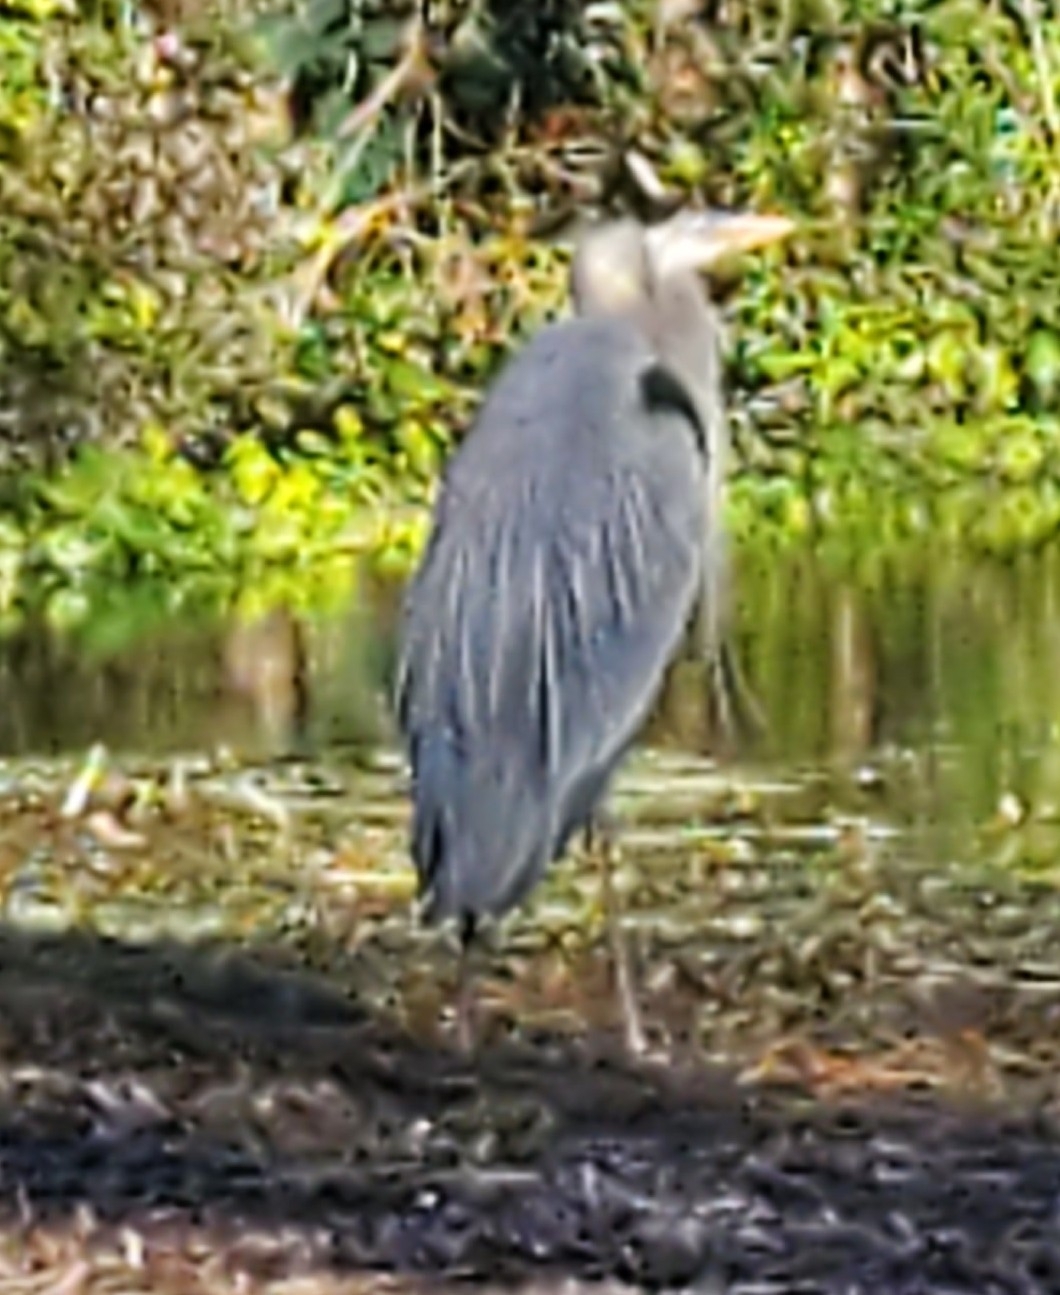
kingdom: Animalia
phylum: Chordata
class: Aves
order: Pelecaniformes
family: Ardeidae
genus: Ardea
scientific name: Ardea herodias
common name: Great blue heron
